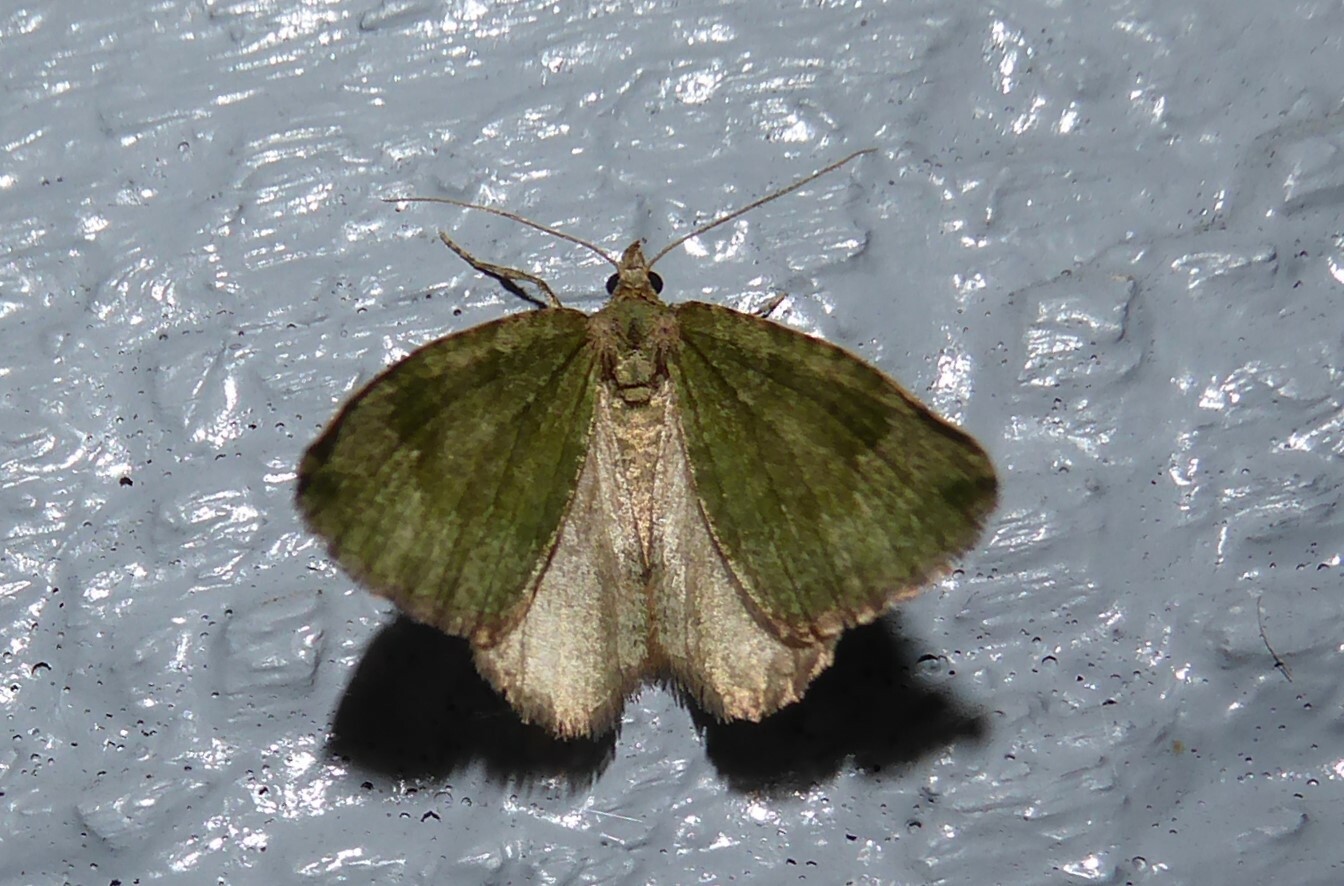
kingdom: Animalia
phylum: Arthropoda
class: Insecta
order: Lepidoptera
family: Geometridae
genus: Epyaxa
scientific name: Epyaxa rosearia
